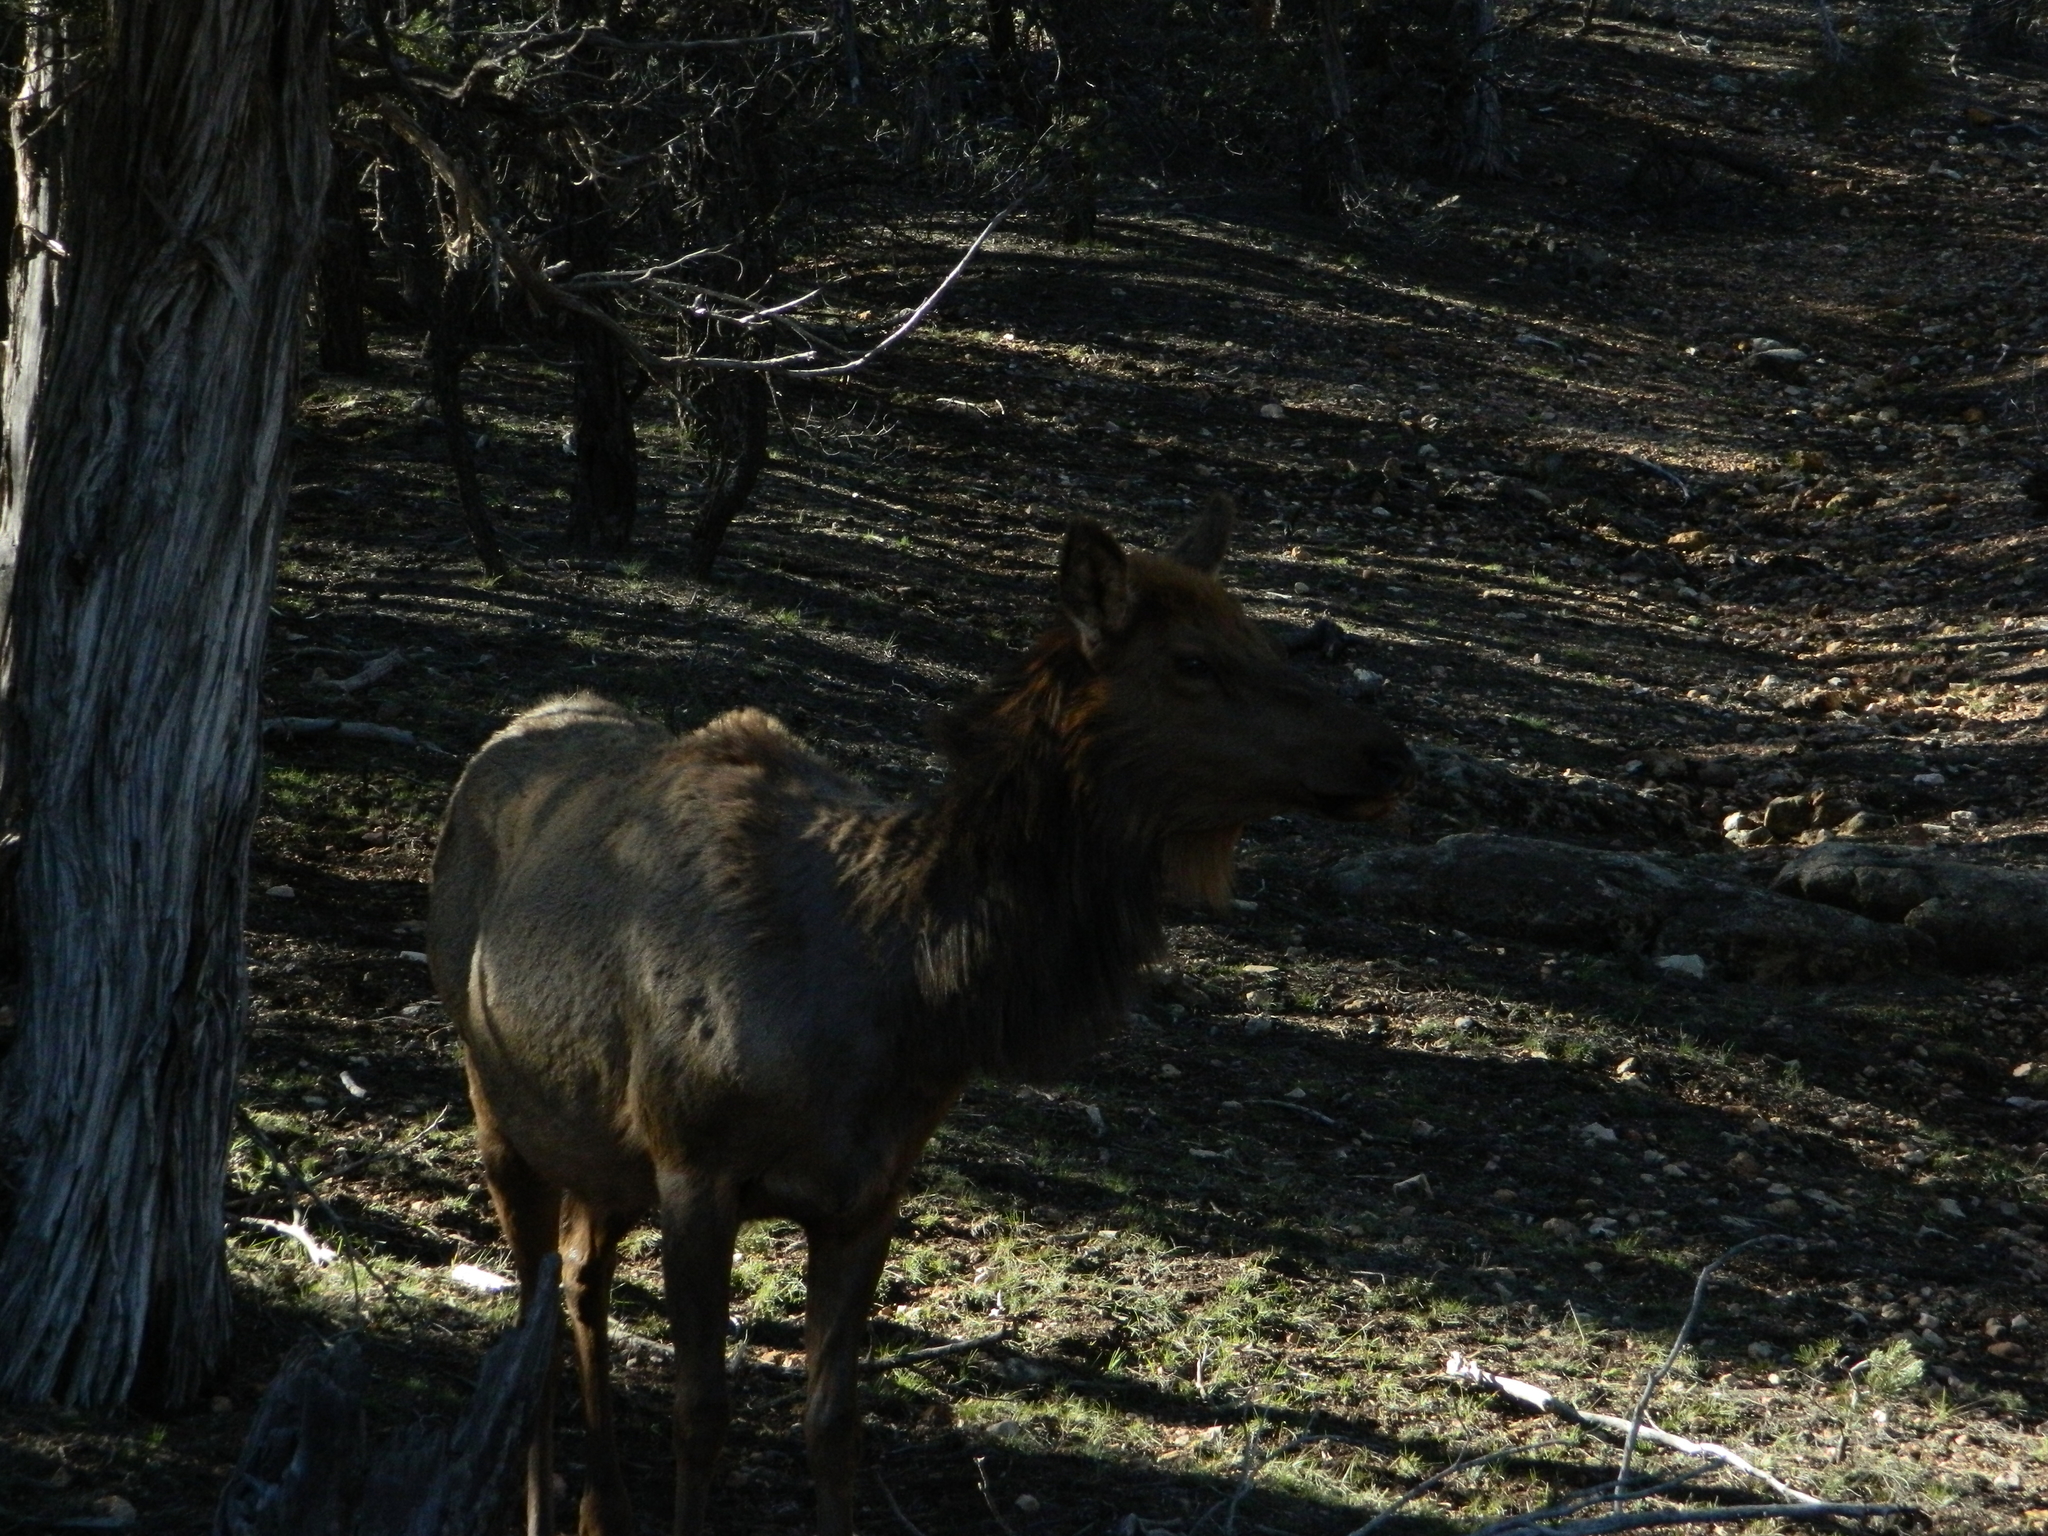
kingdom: Animalia
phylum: Chordata
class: Mammalia
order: Artiodactyla
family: Cervidae
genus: Cervus
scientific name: Cervus elaphus
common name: Red deer
